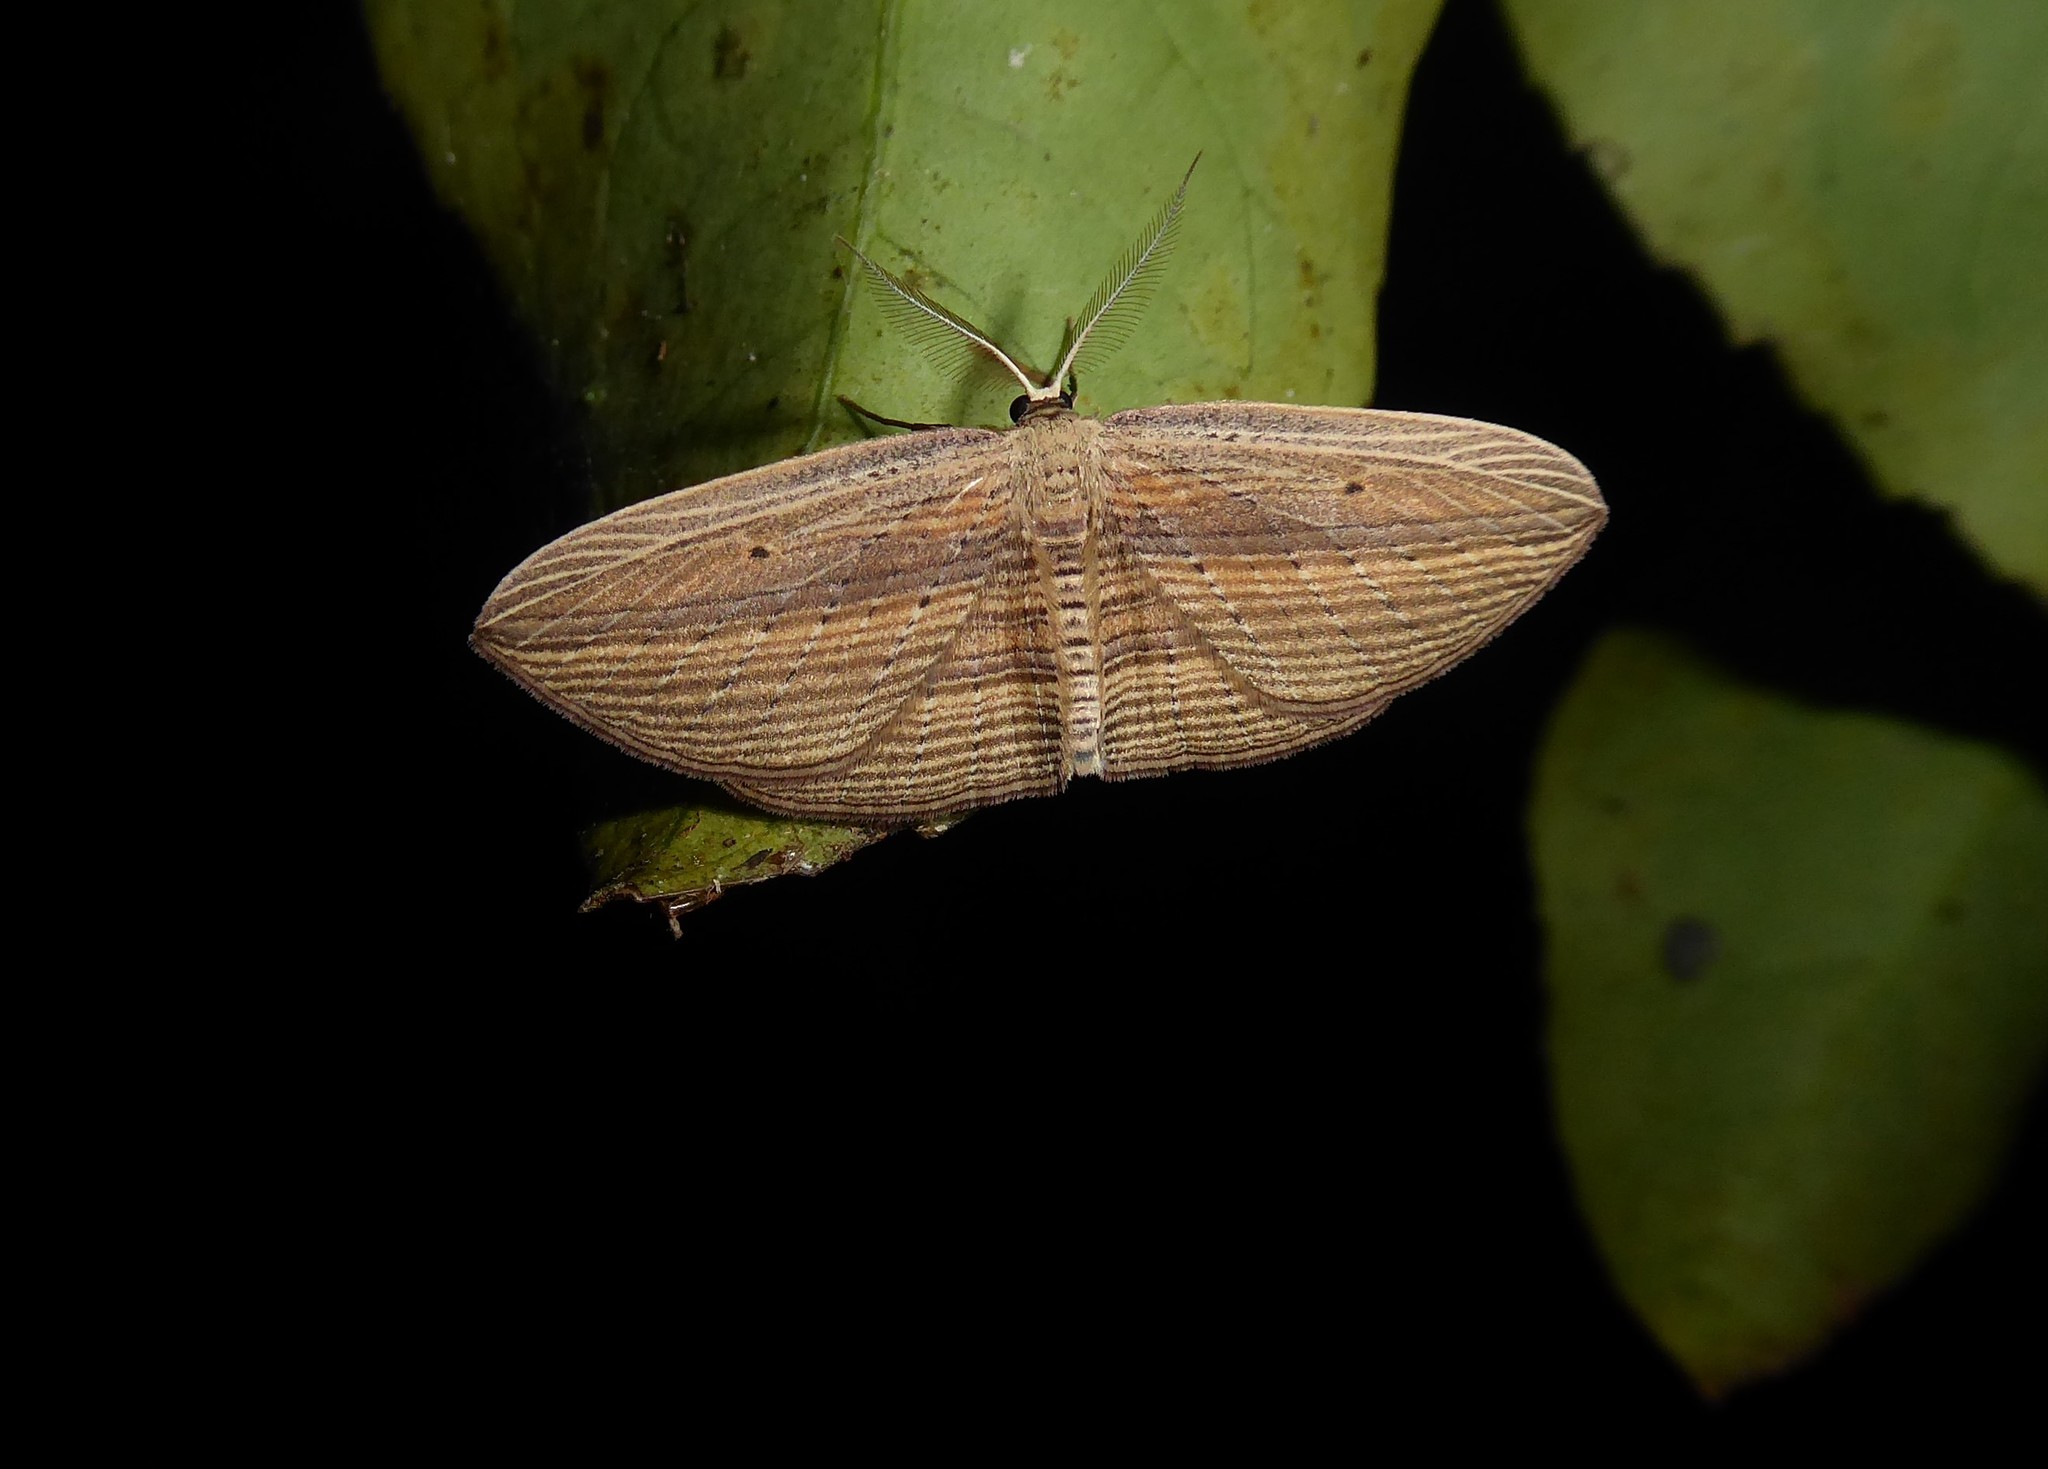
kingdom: Animalia
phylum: Arthropoda
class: Insecta
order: Lepidoptera
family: Geometridae
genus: Epiphryne
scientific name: Epiphryne verriculata
